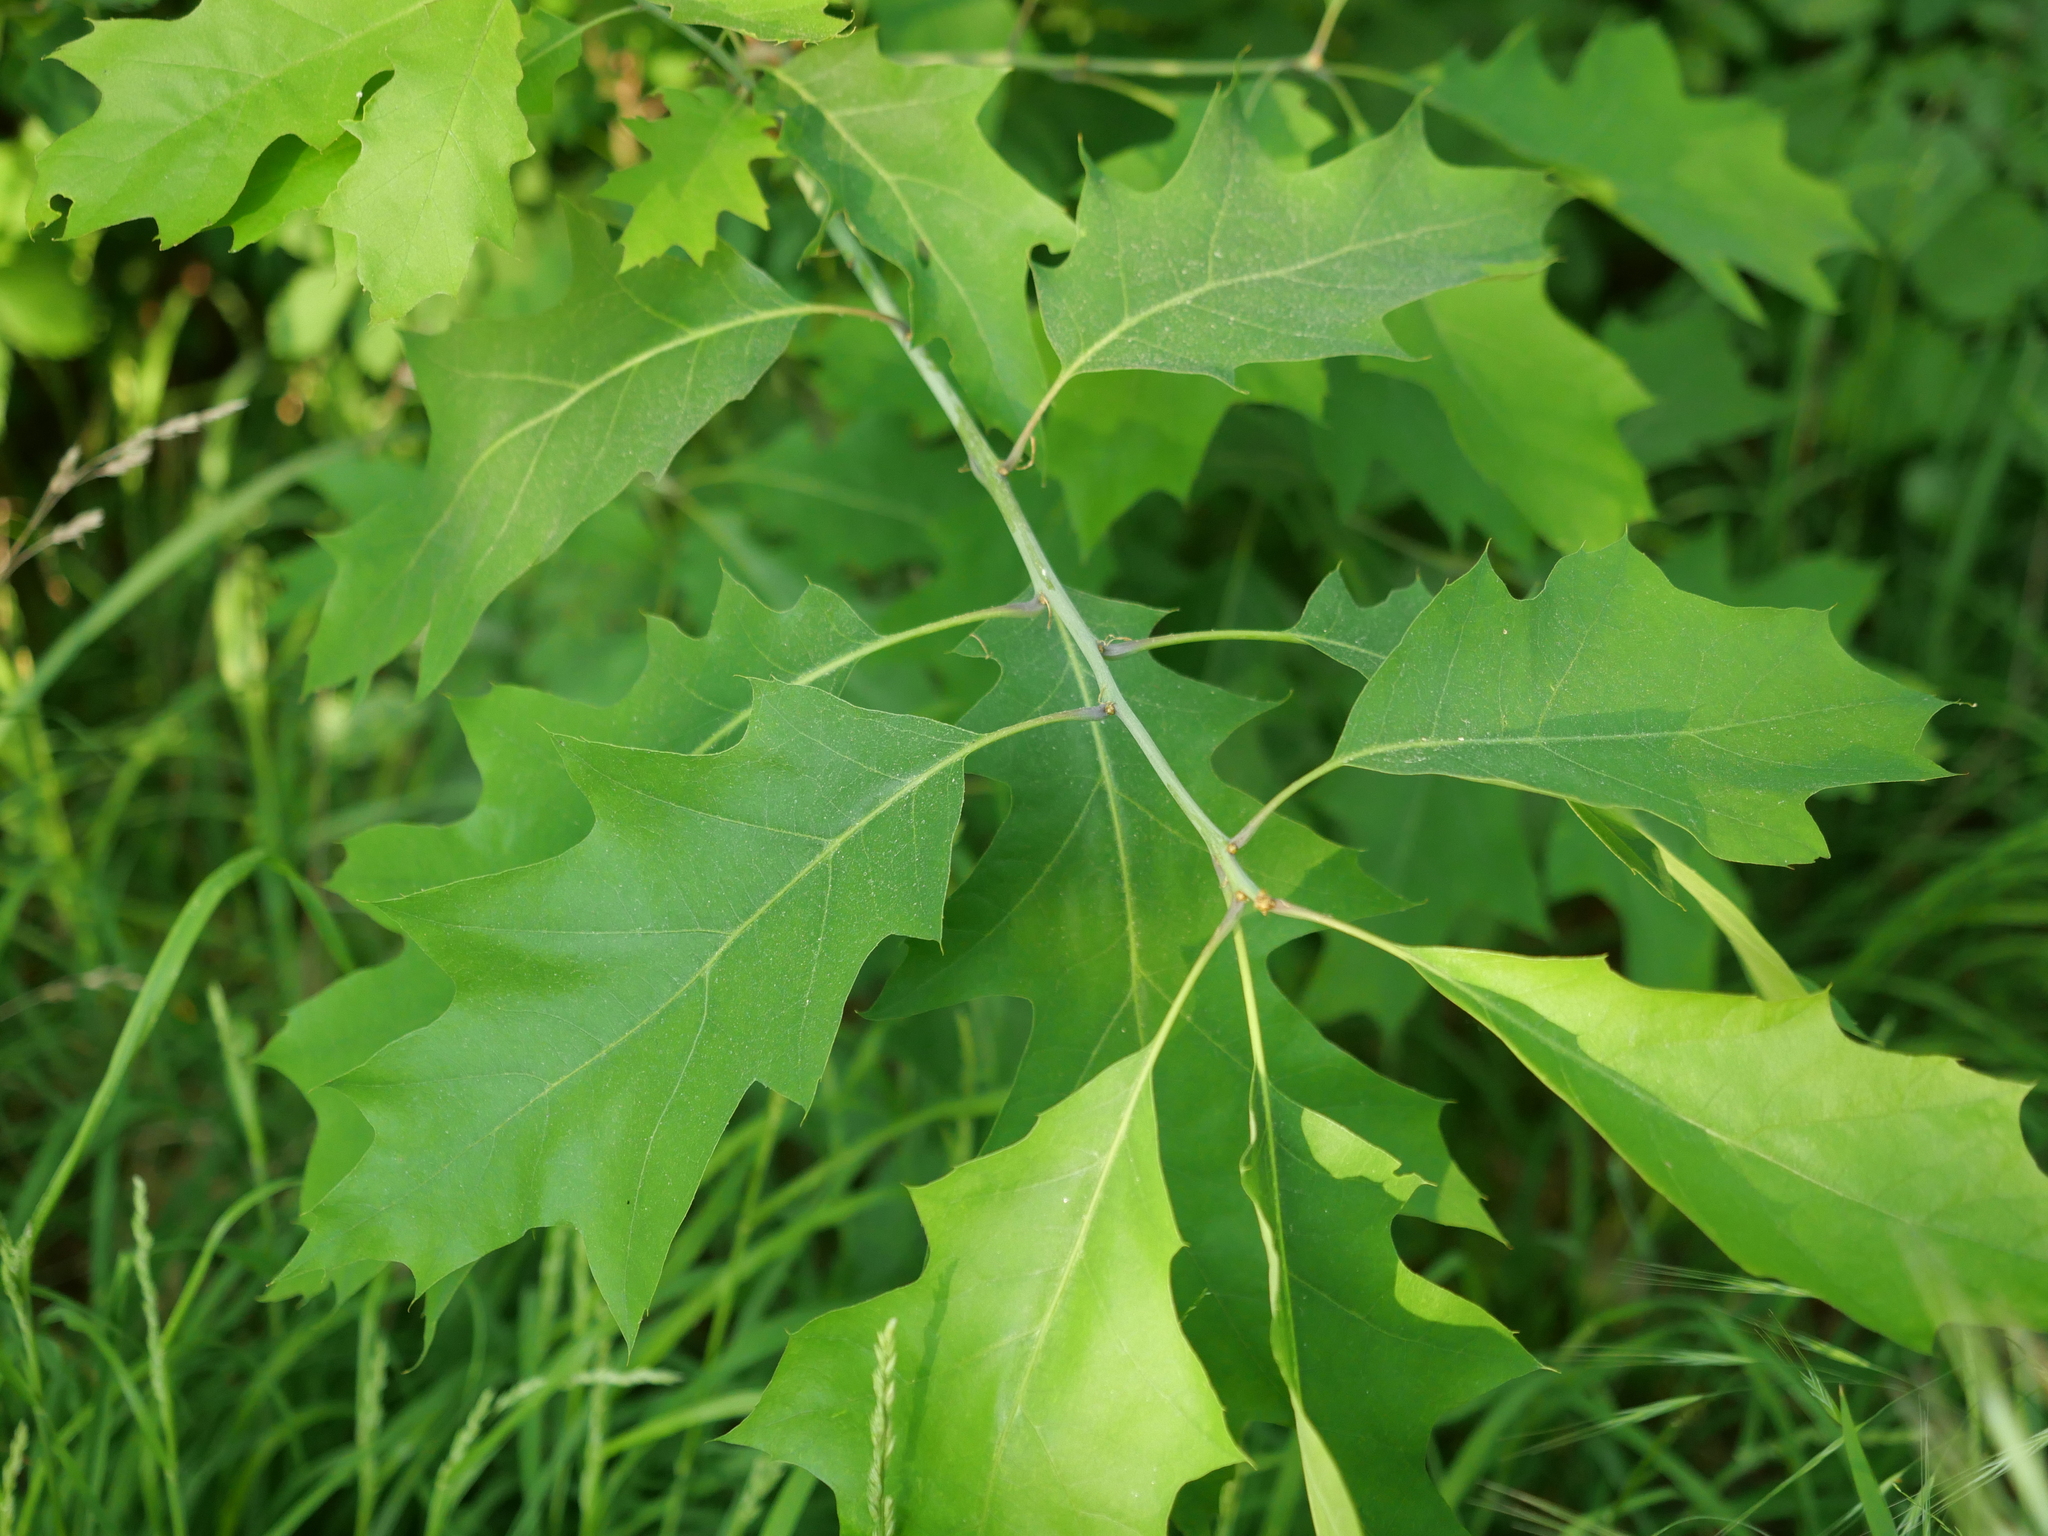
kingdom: Plantae
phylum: Tracheophyta
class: Magnoliopsida
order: Fagales
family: Fagaceae
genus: Quercus
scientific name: Quercus rubra
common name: Red oak
